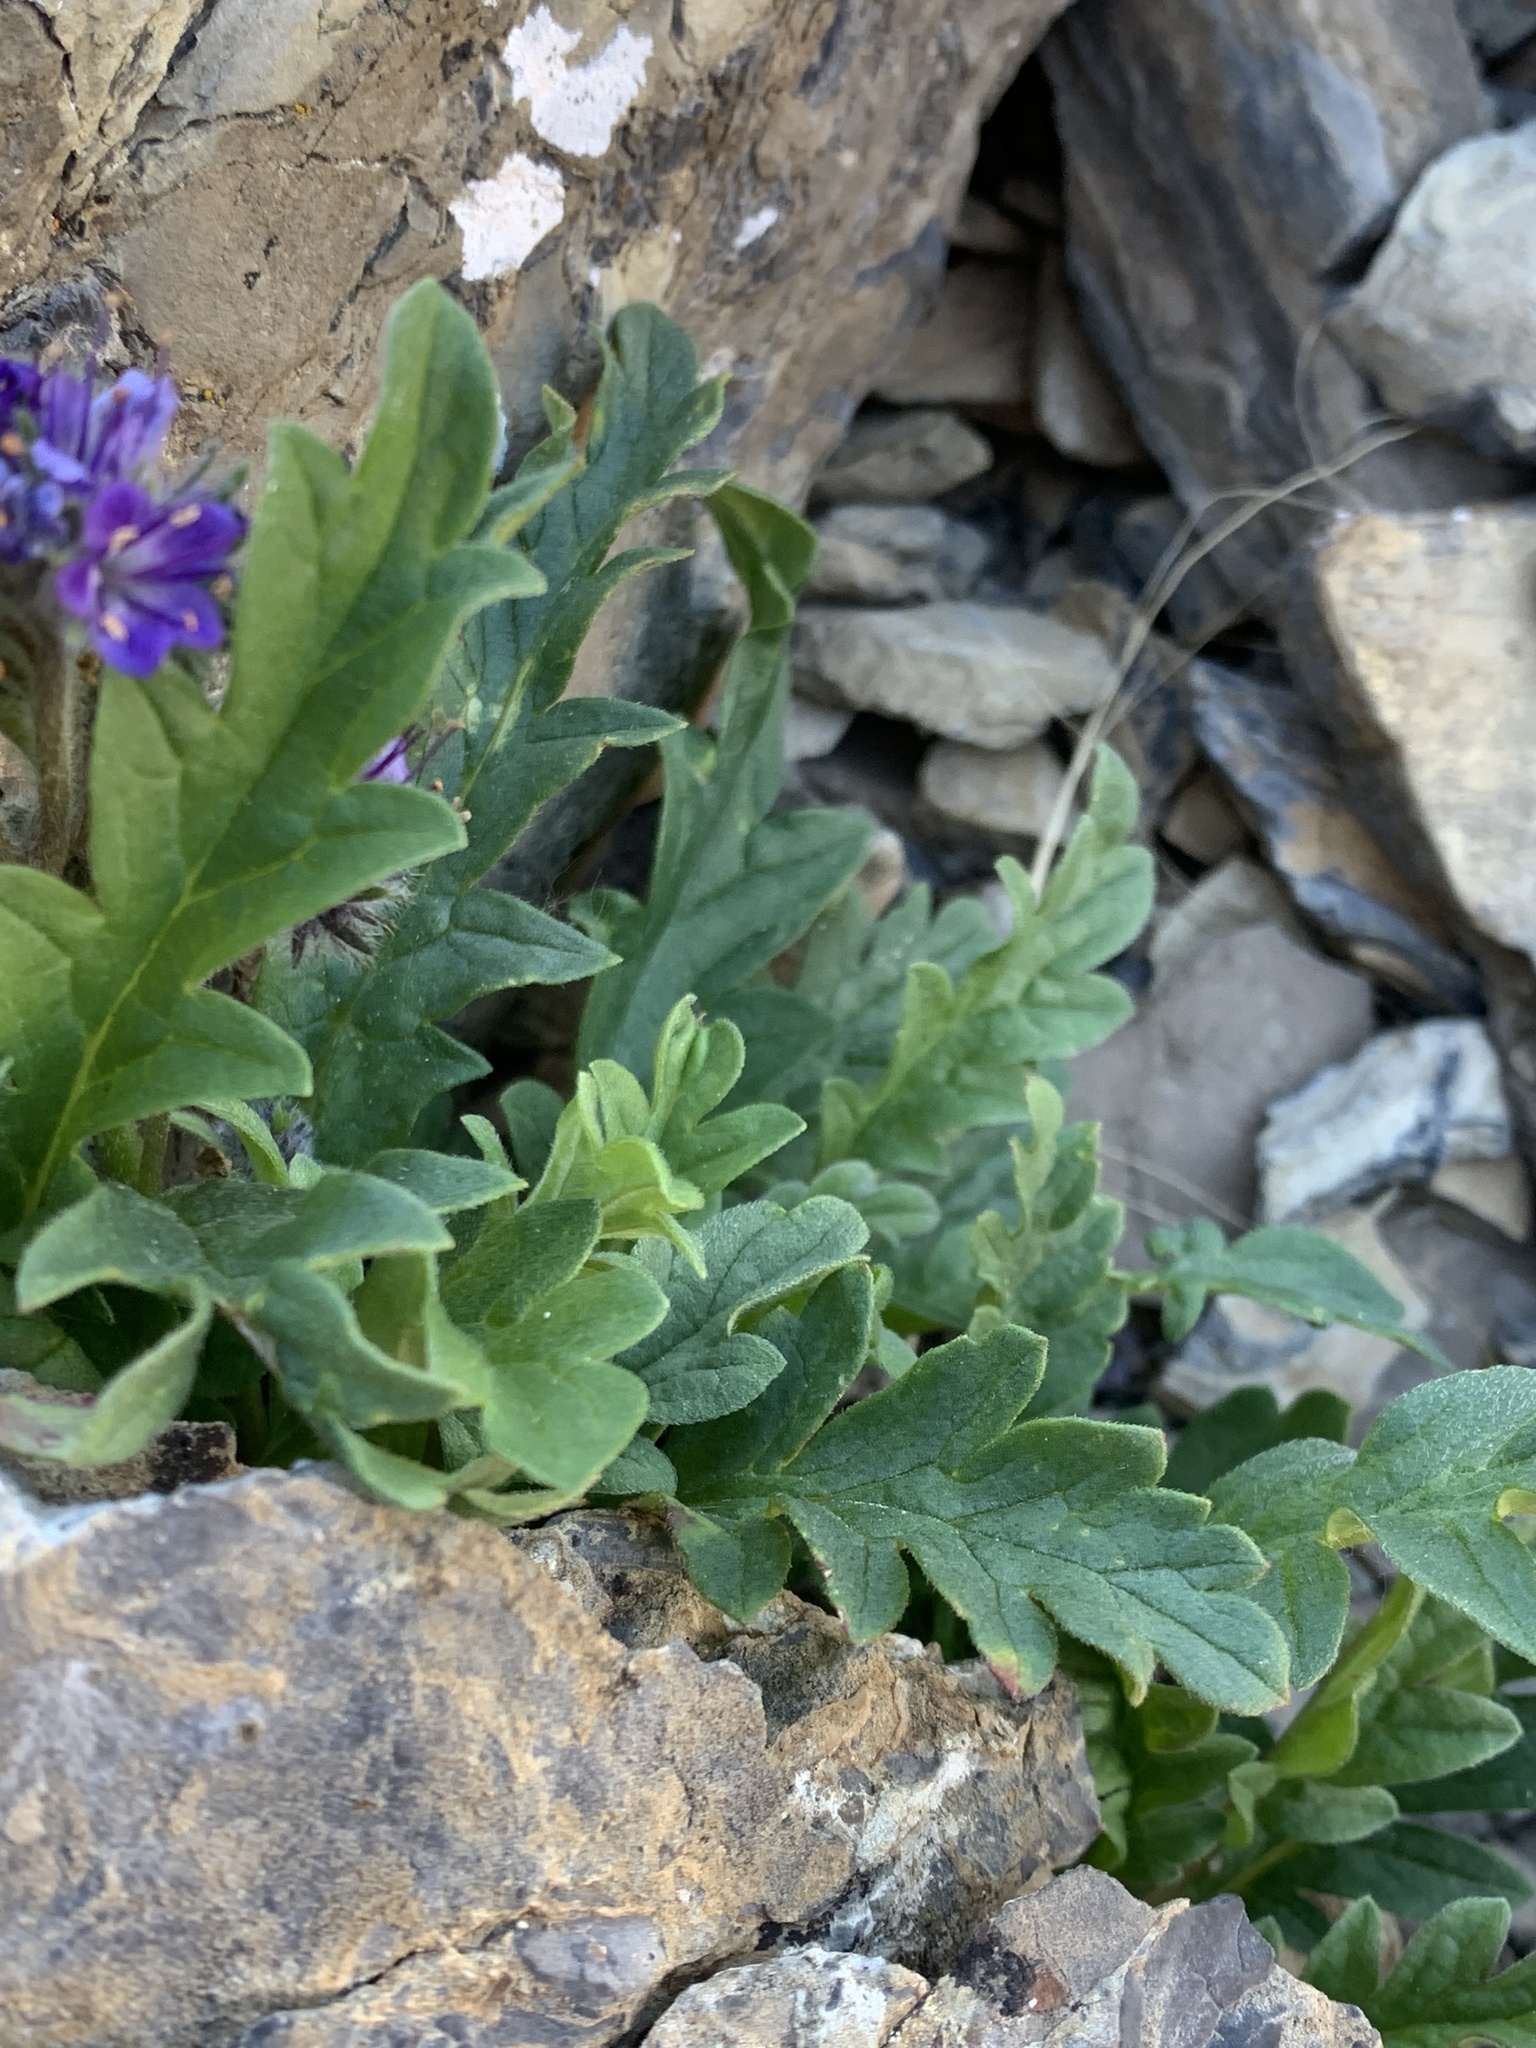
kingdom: Plantae
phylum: Tracheophyta
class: Magnoliopsida
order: Boraginales
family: Hydrophyllaceae
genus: Phacelia
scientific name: Phacelia lyallii
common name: Lyall's phacelia
